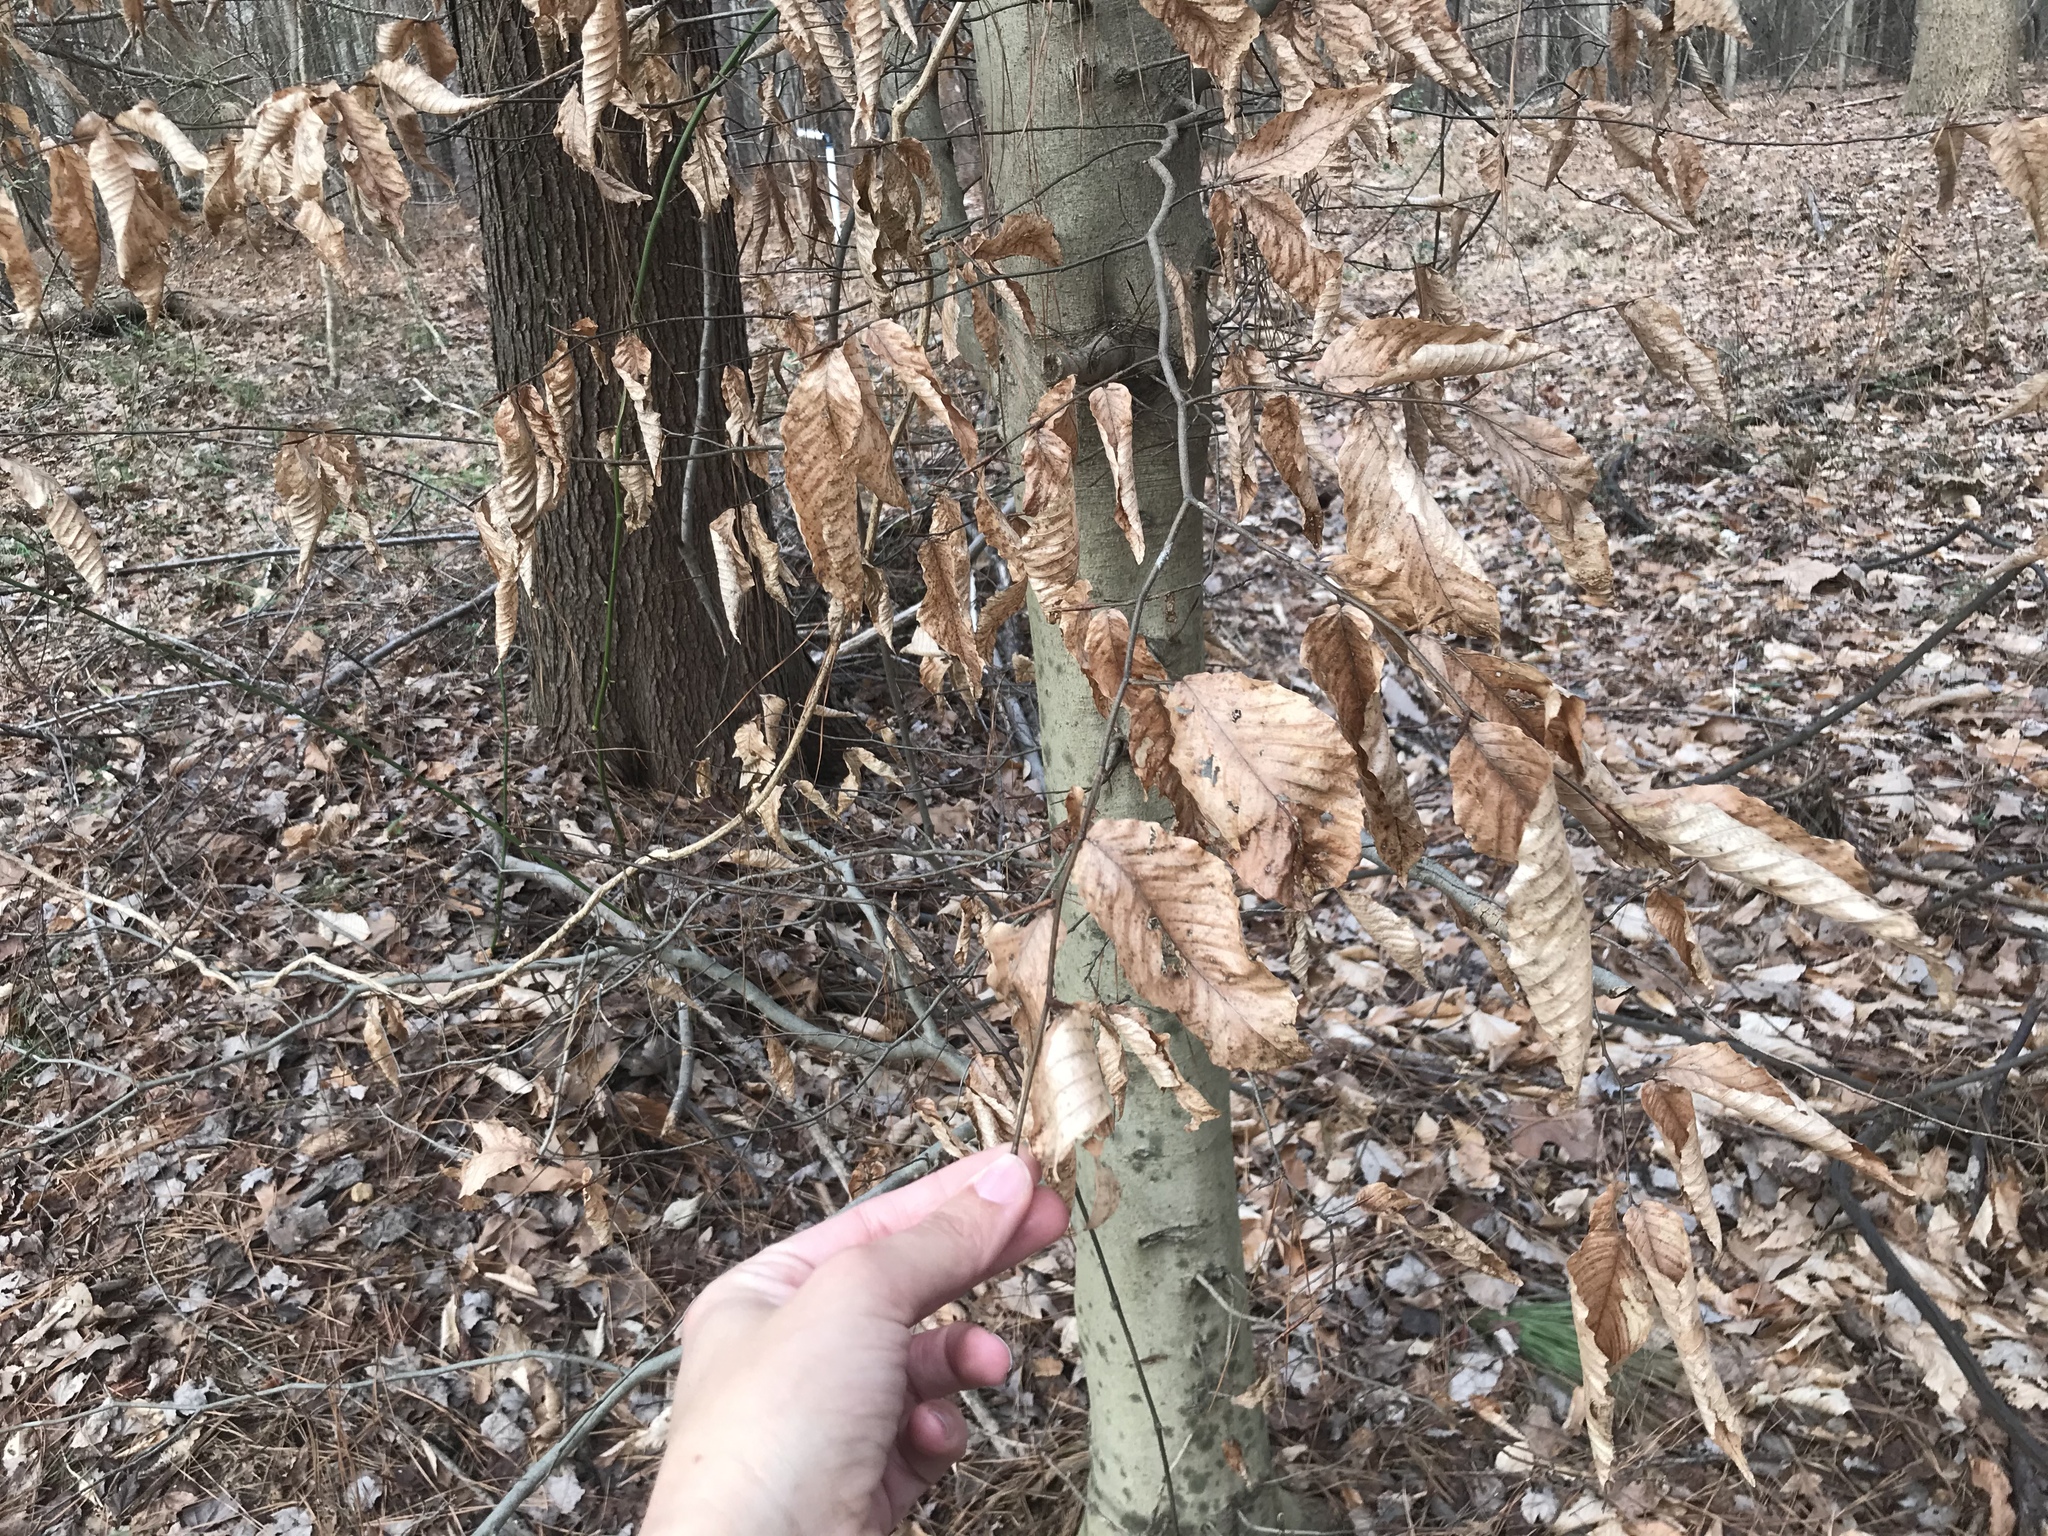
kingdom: Plantae
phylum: Tracheophyta
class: Magnoliopsida
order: Fagales
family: Fagaceae
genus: Fagus
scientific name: Fagus grandifolia
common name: American beech
